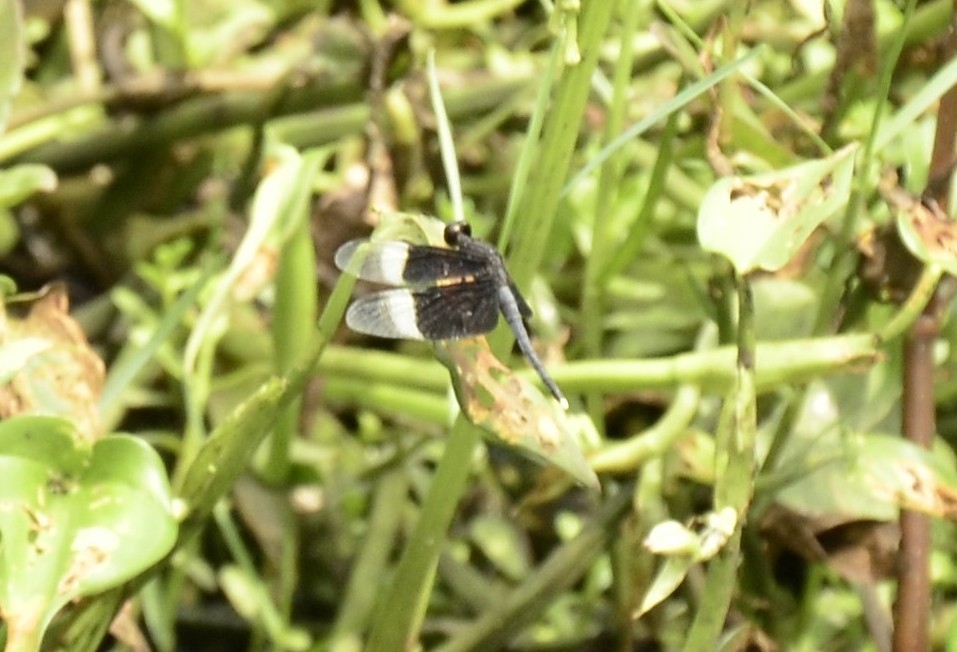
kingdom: Animalia
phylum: Arthropoda
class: Insecta
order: Odonata
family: Libellulidae
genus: Neurothemis
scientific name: Neurothemis tullia
